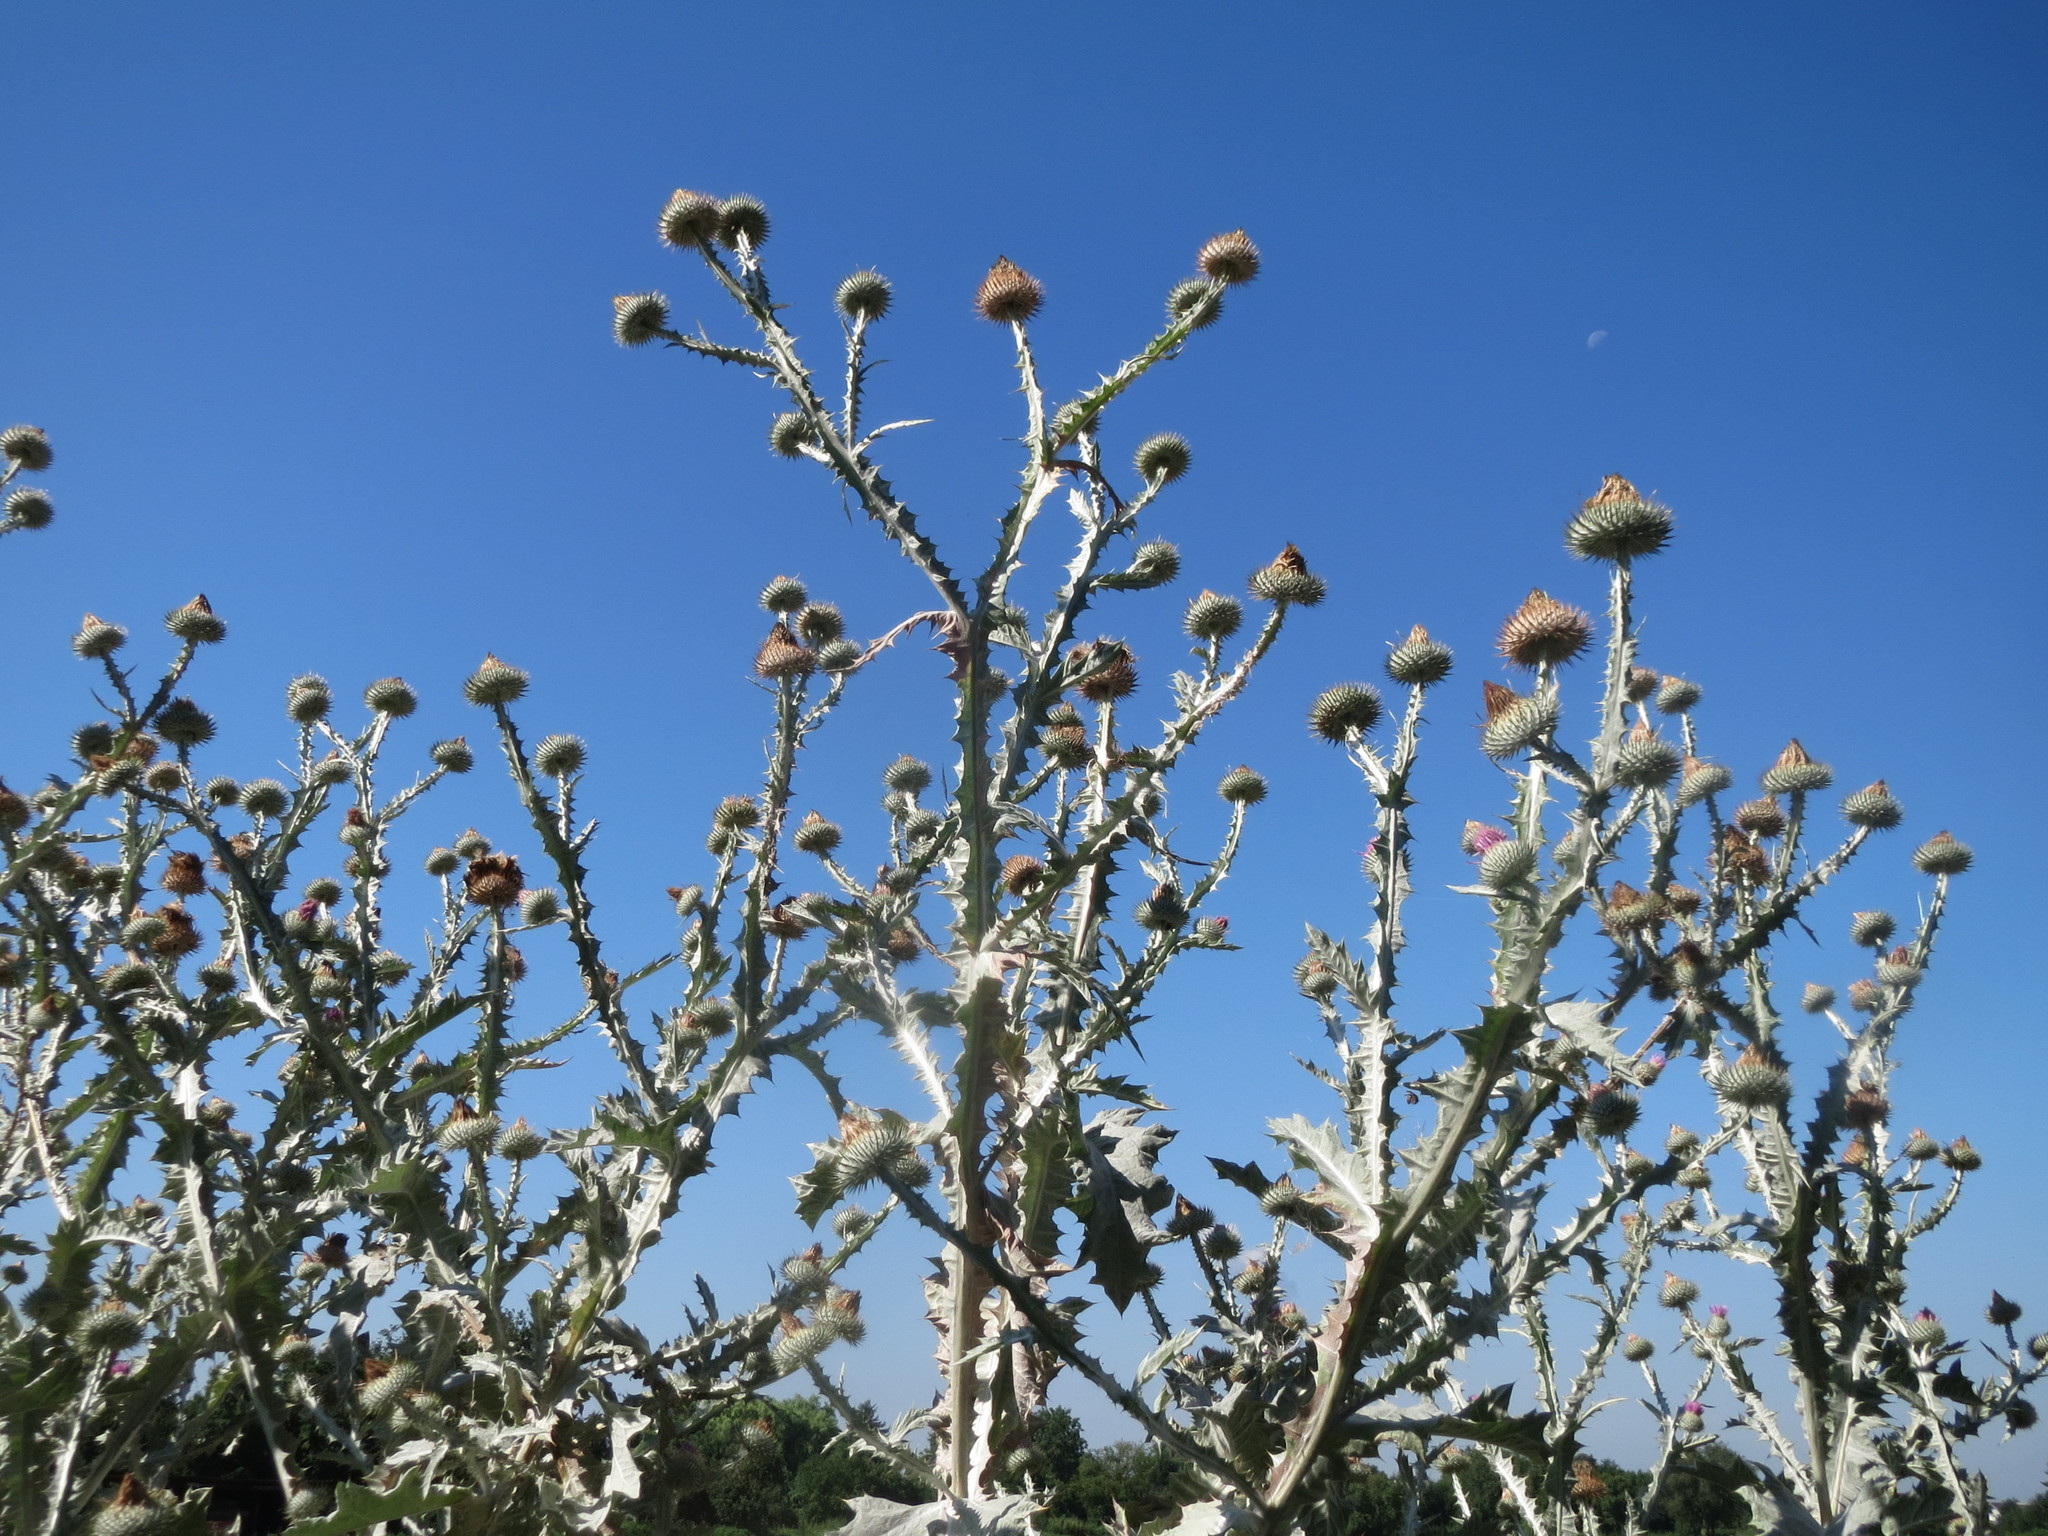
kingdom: Plantae
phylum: Tracheophyta
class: Magnoliopsida
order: Asterales
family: Asteraceae
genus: Onopordum
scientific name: Onopordum acanthium
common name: Scotch thistle
